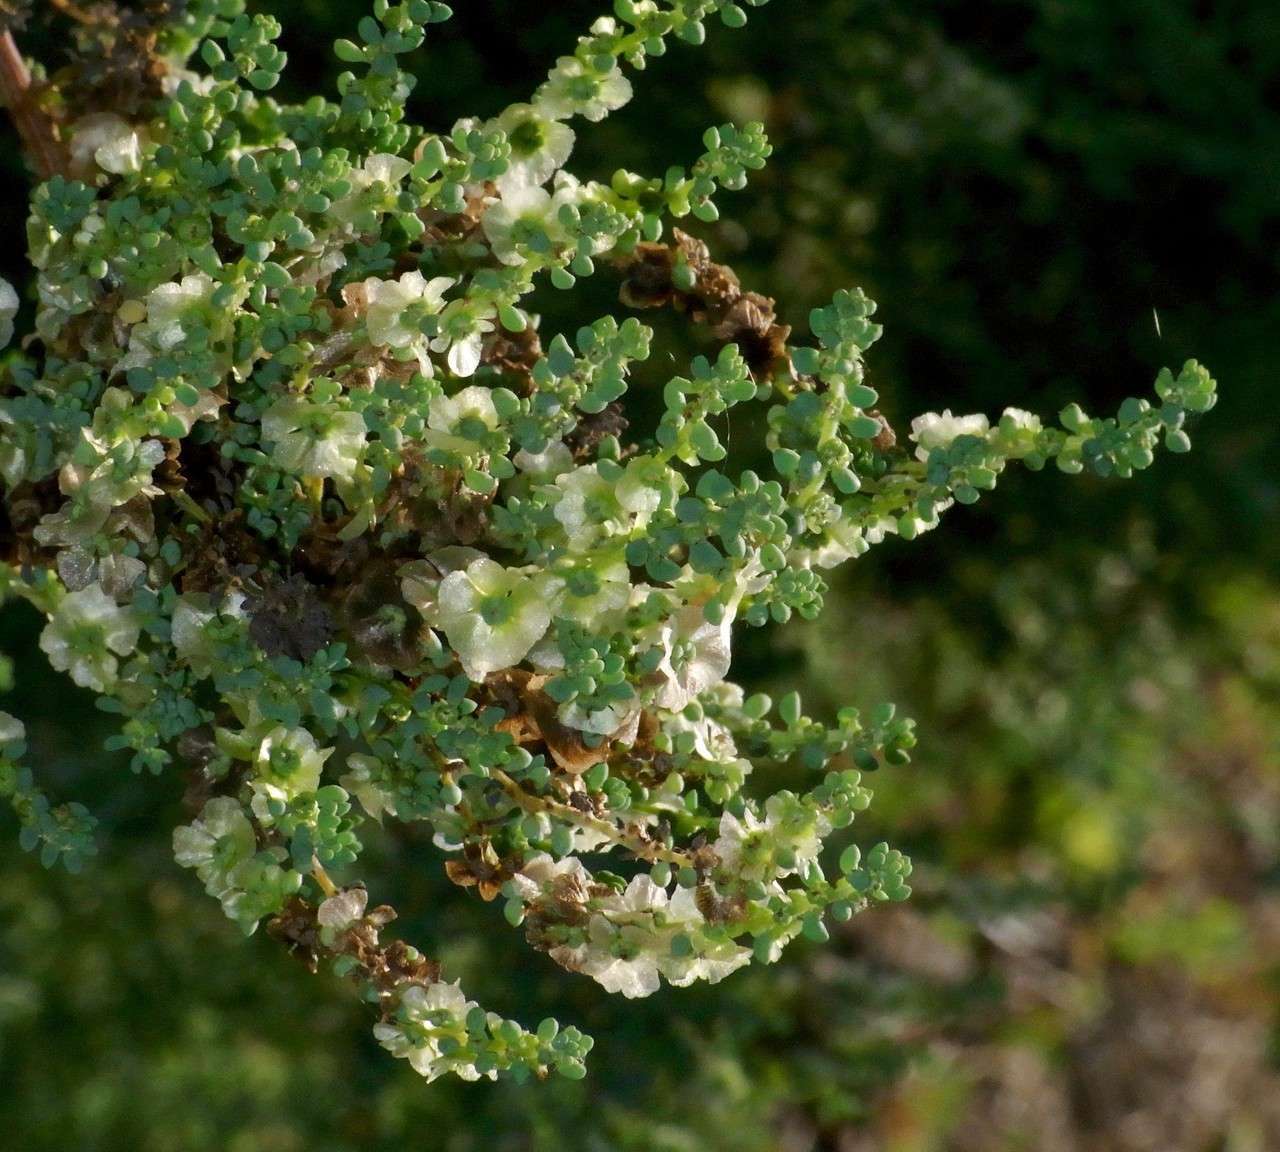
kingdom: Plantae
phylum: Tracheophyta
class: Magnoliopsida
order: Caryophyllales
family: Amaranthaceae
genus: Maireana
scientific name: Maireana brevifolia
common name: Eastern cottonbush
